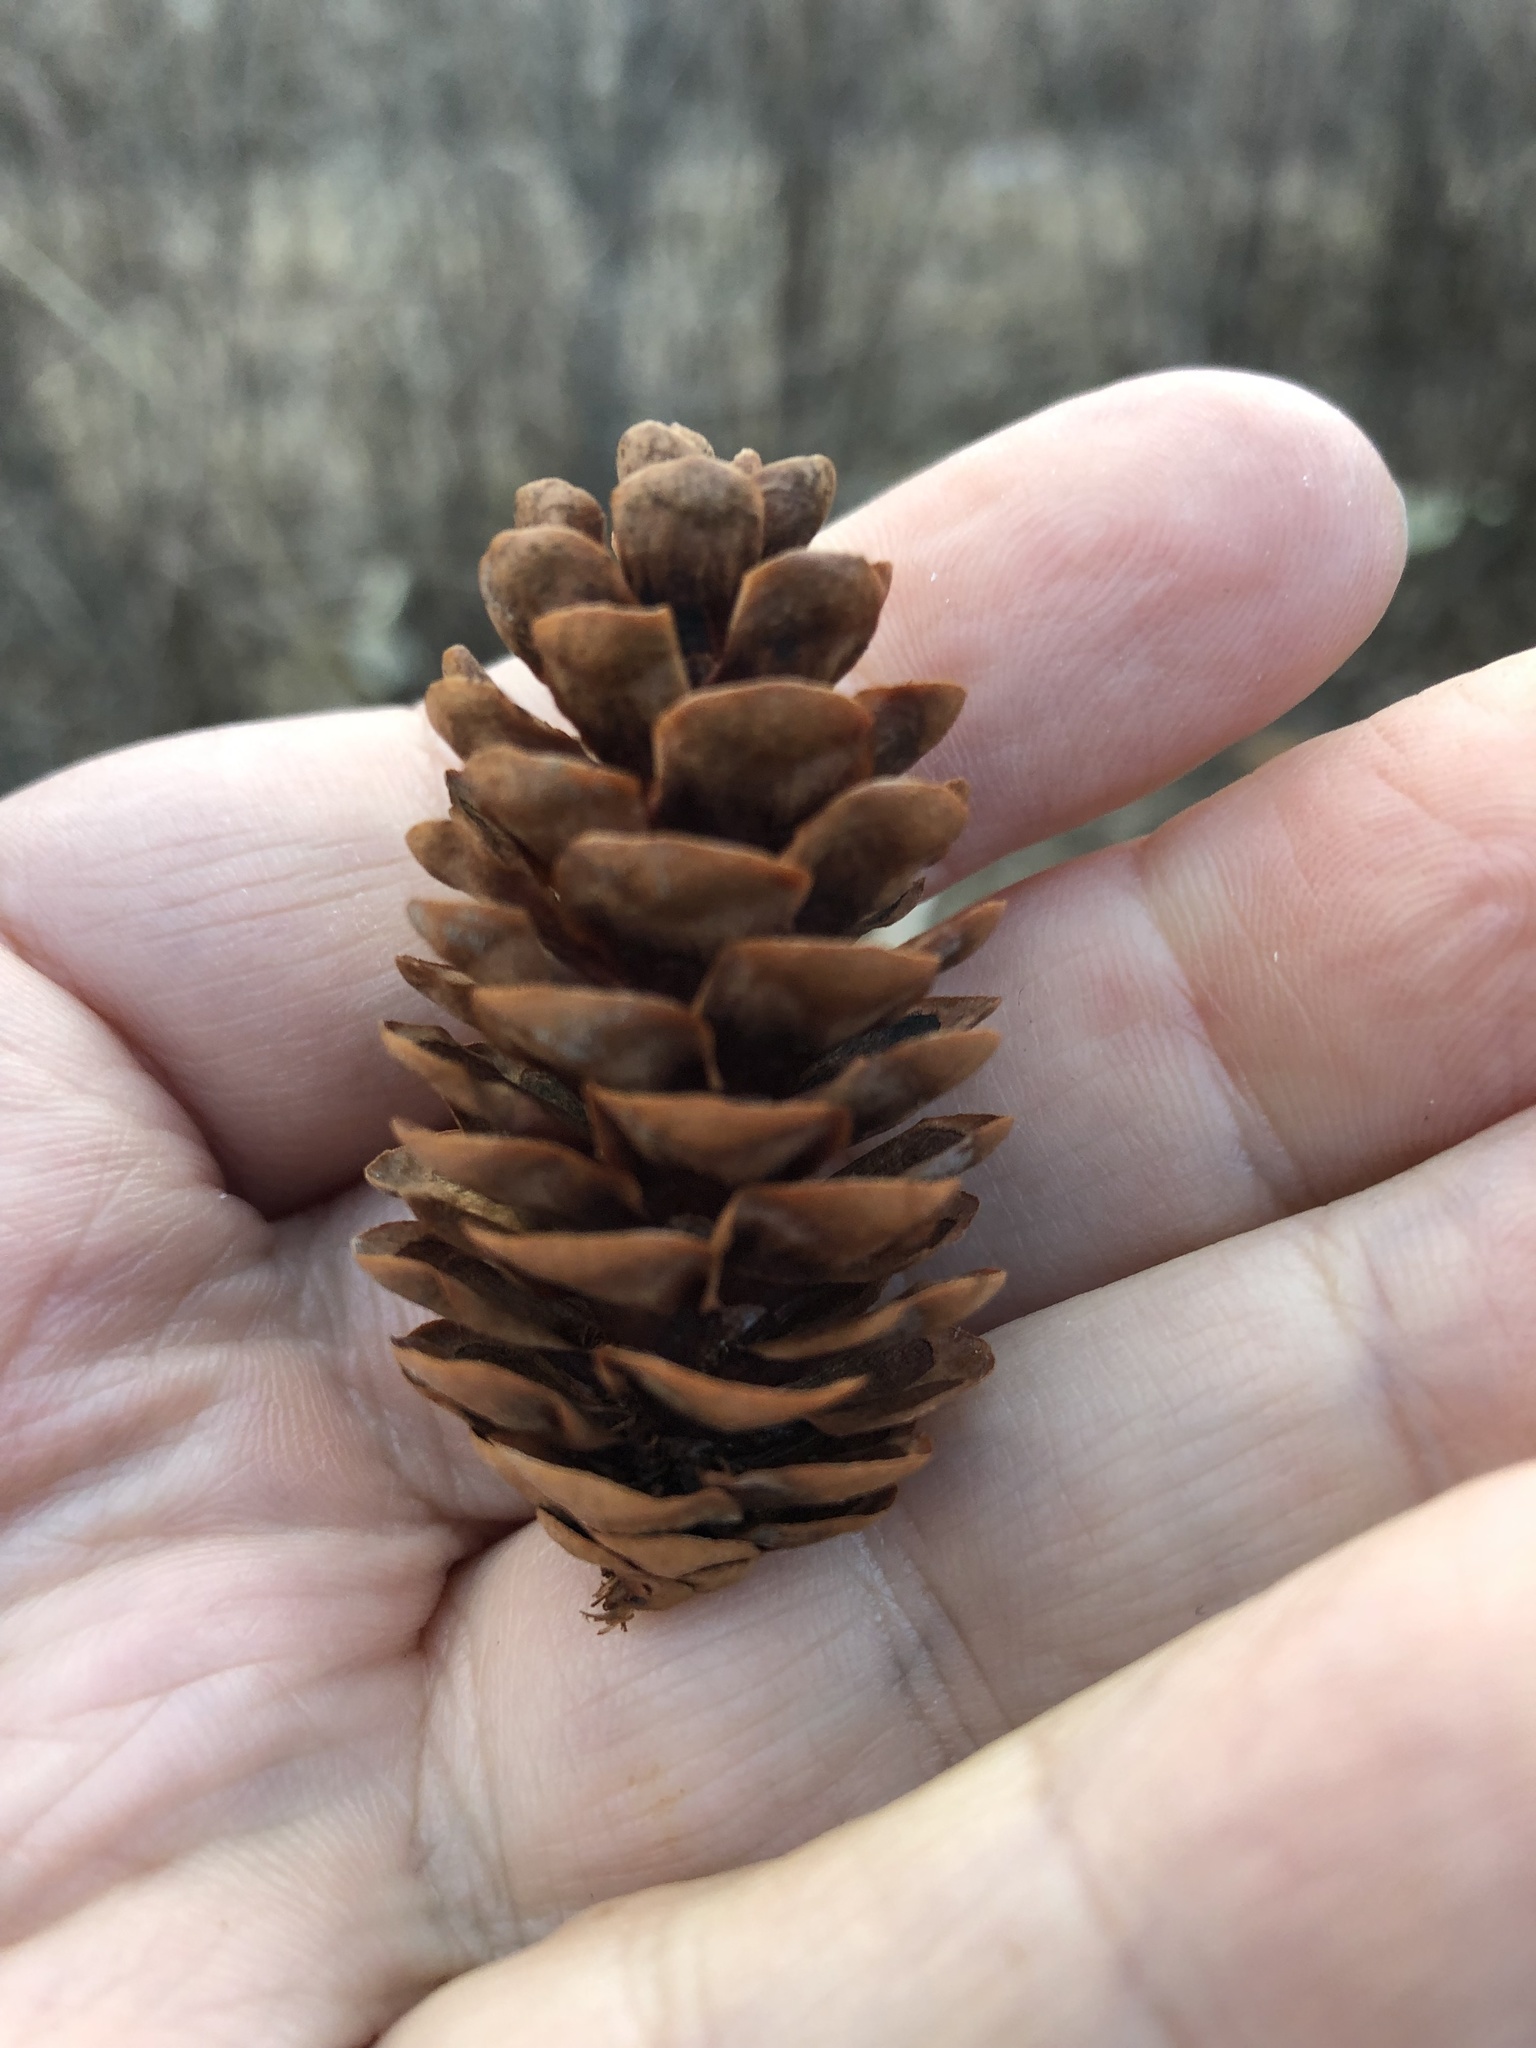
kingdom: Plantae
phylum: Tracheophyta
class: Pinopsida
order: Pinales
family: Pinaceae
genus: Picea
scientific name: Picea glauca
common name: White spruce
